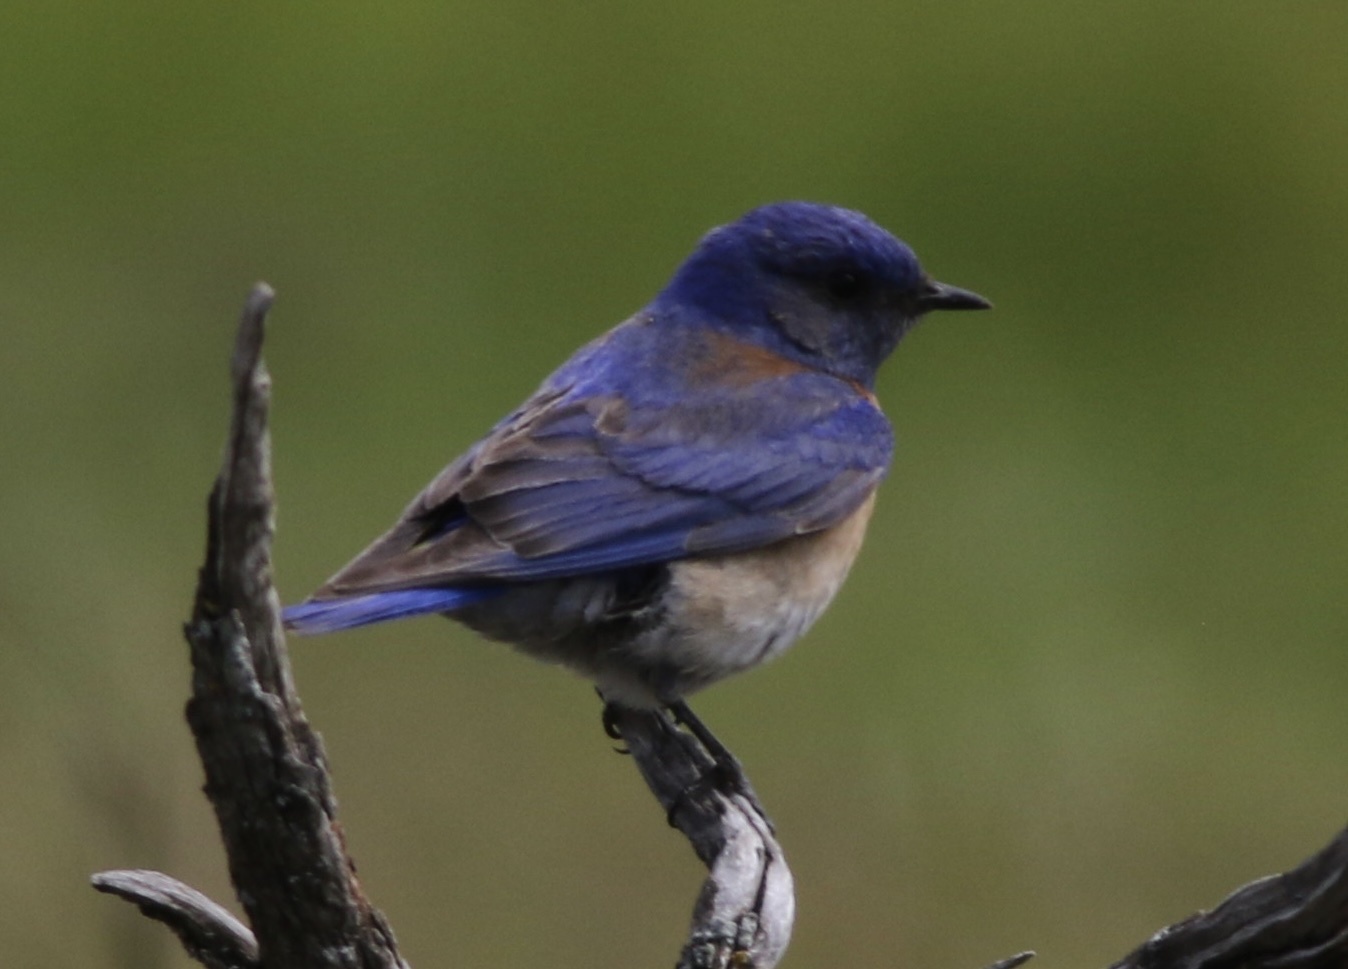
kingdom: Animalia
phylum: Chordata
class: Aves
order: Passeriformes
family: Turdidae
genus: Sialia
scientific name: Sialia mexicana
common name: Western bluebird
